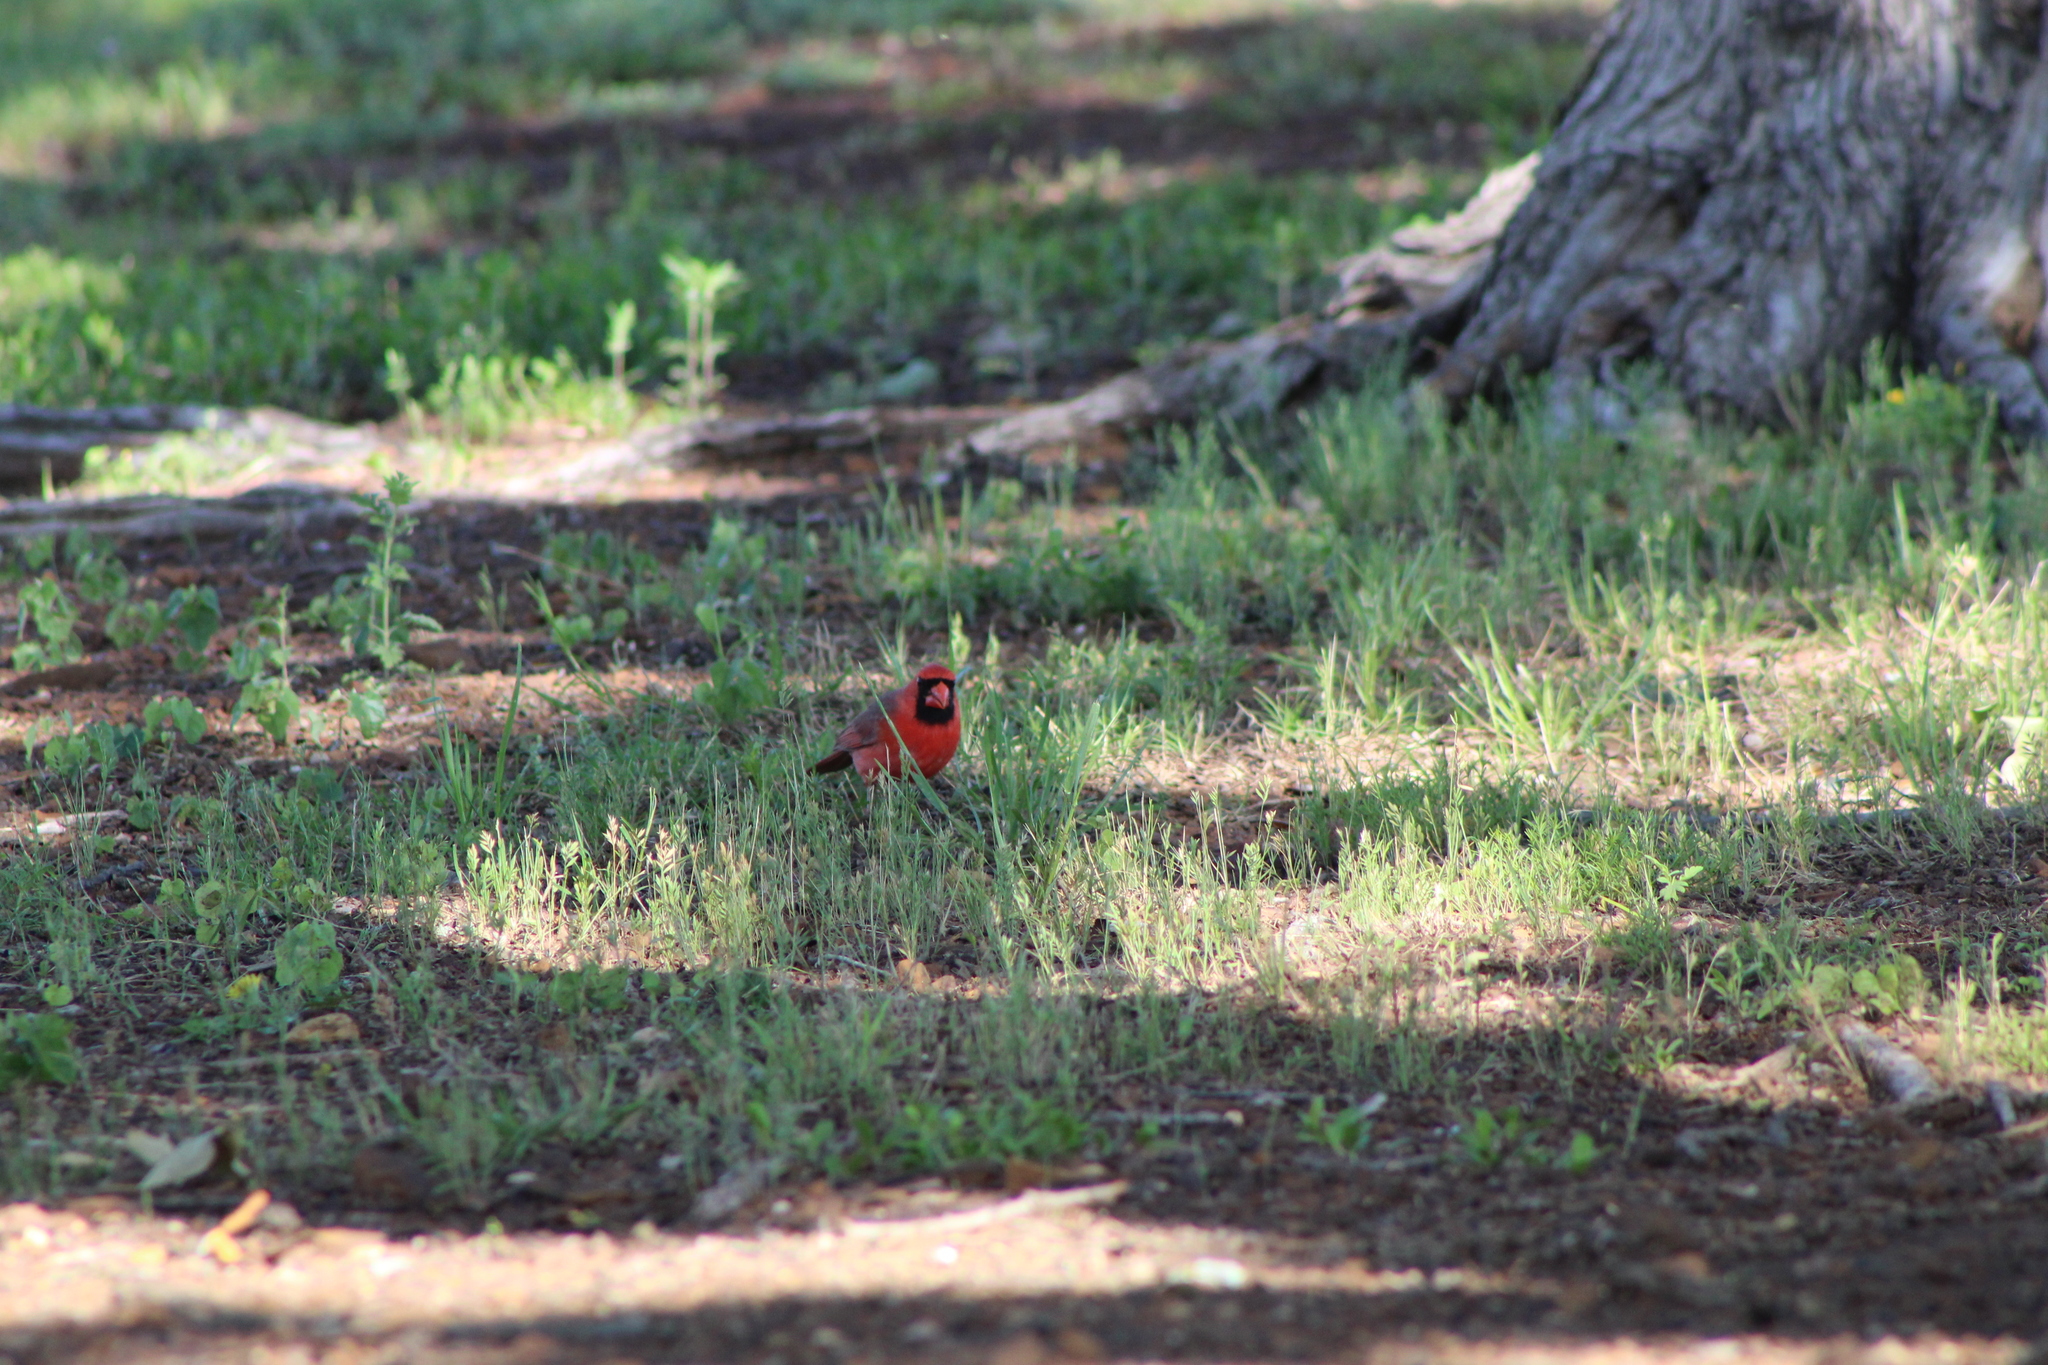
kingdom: Animalia
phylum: Chordata
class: Aves
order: Passeriformes
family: Cardinalidae
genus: Cardinalis
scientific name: Cardinalis cardinalis
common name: Northern cardinal
